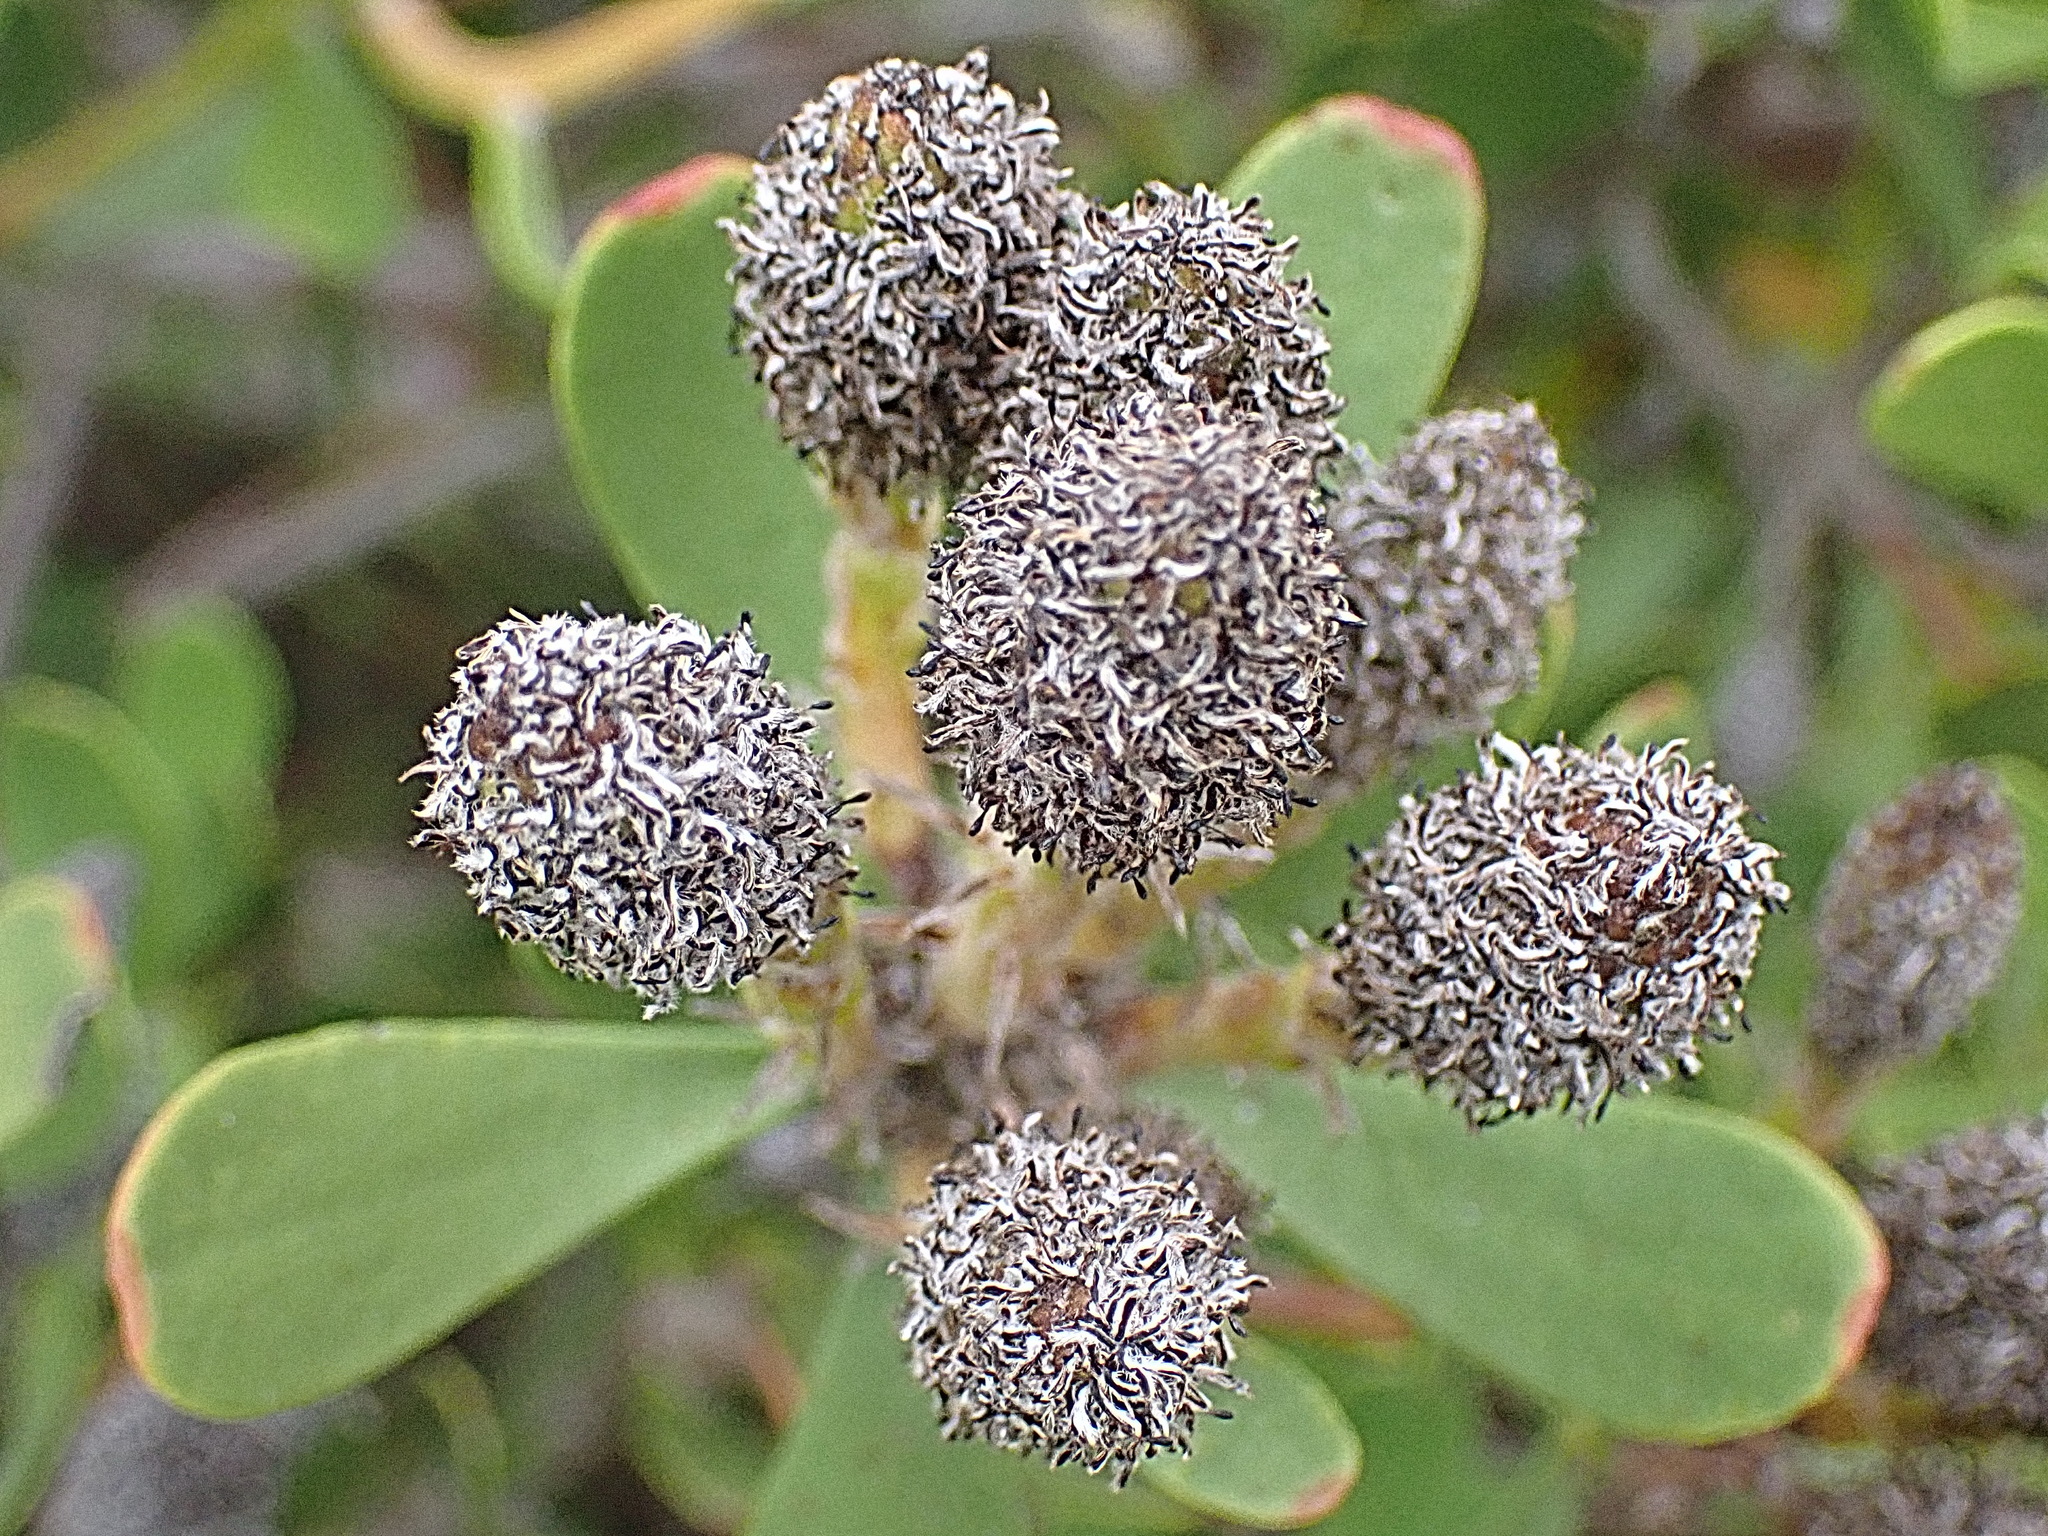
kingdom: Plantae
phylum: Tracheophyta
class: Magnoliopsida
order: Proteales
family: Proteaceae
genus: Leucadendron
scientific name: Leucadendron muirii
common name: Silver-ball conebush
